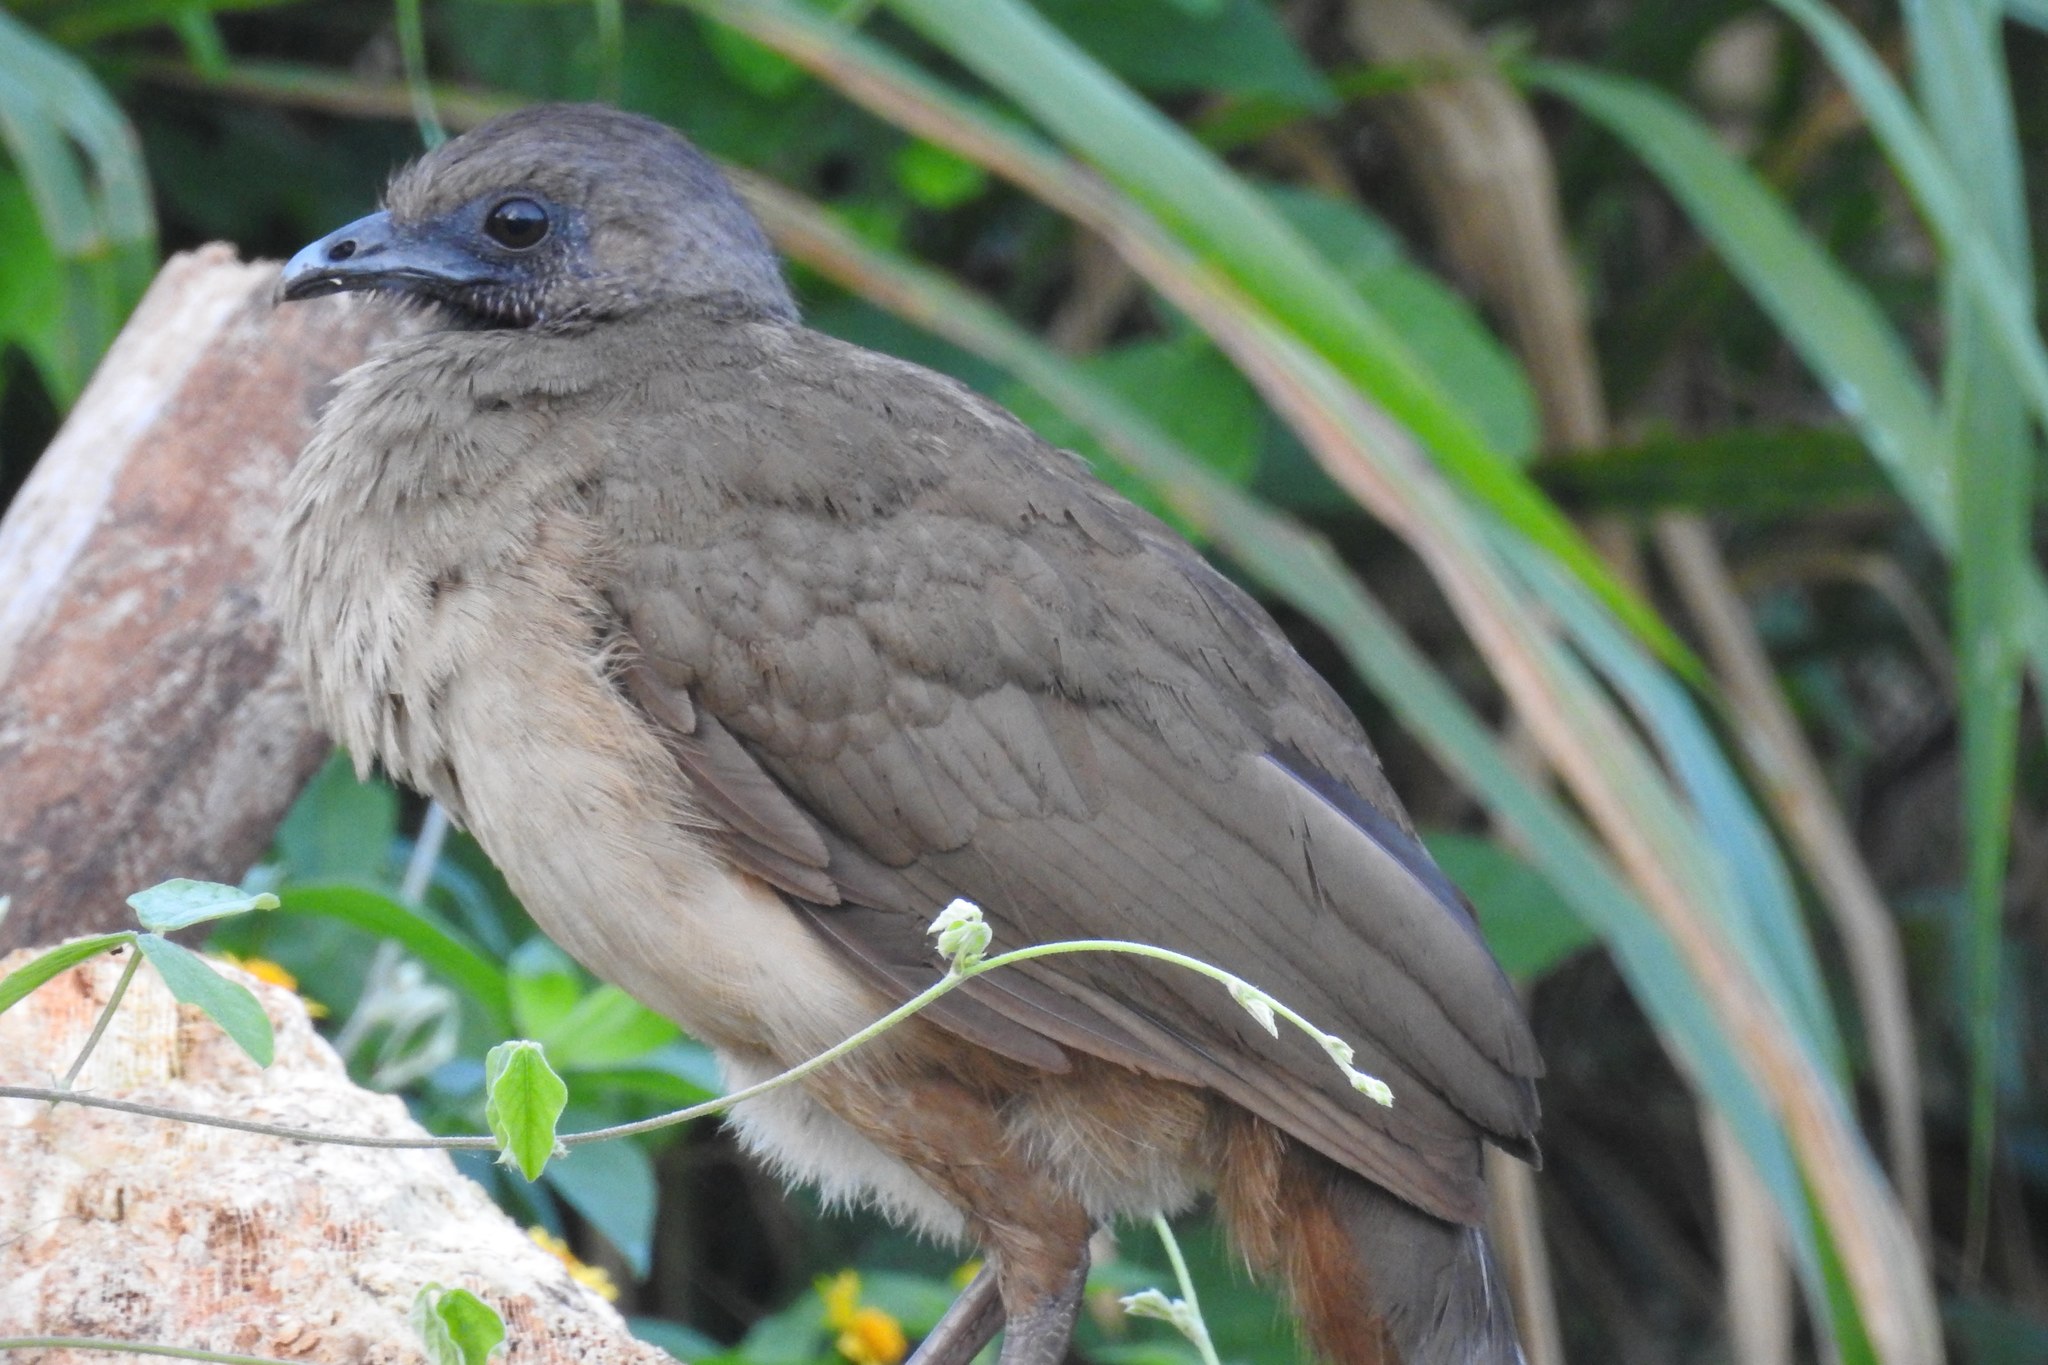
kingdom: Animalia
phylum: Chordata
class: Aves
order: Galliformes
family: Cracidae
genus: Ortalis
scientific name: Ortalis vetula
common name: Plain chachalaca
